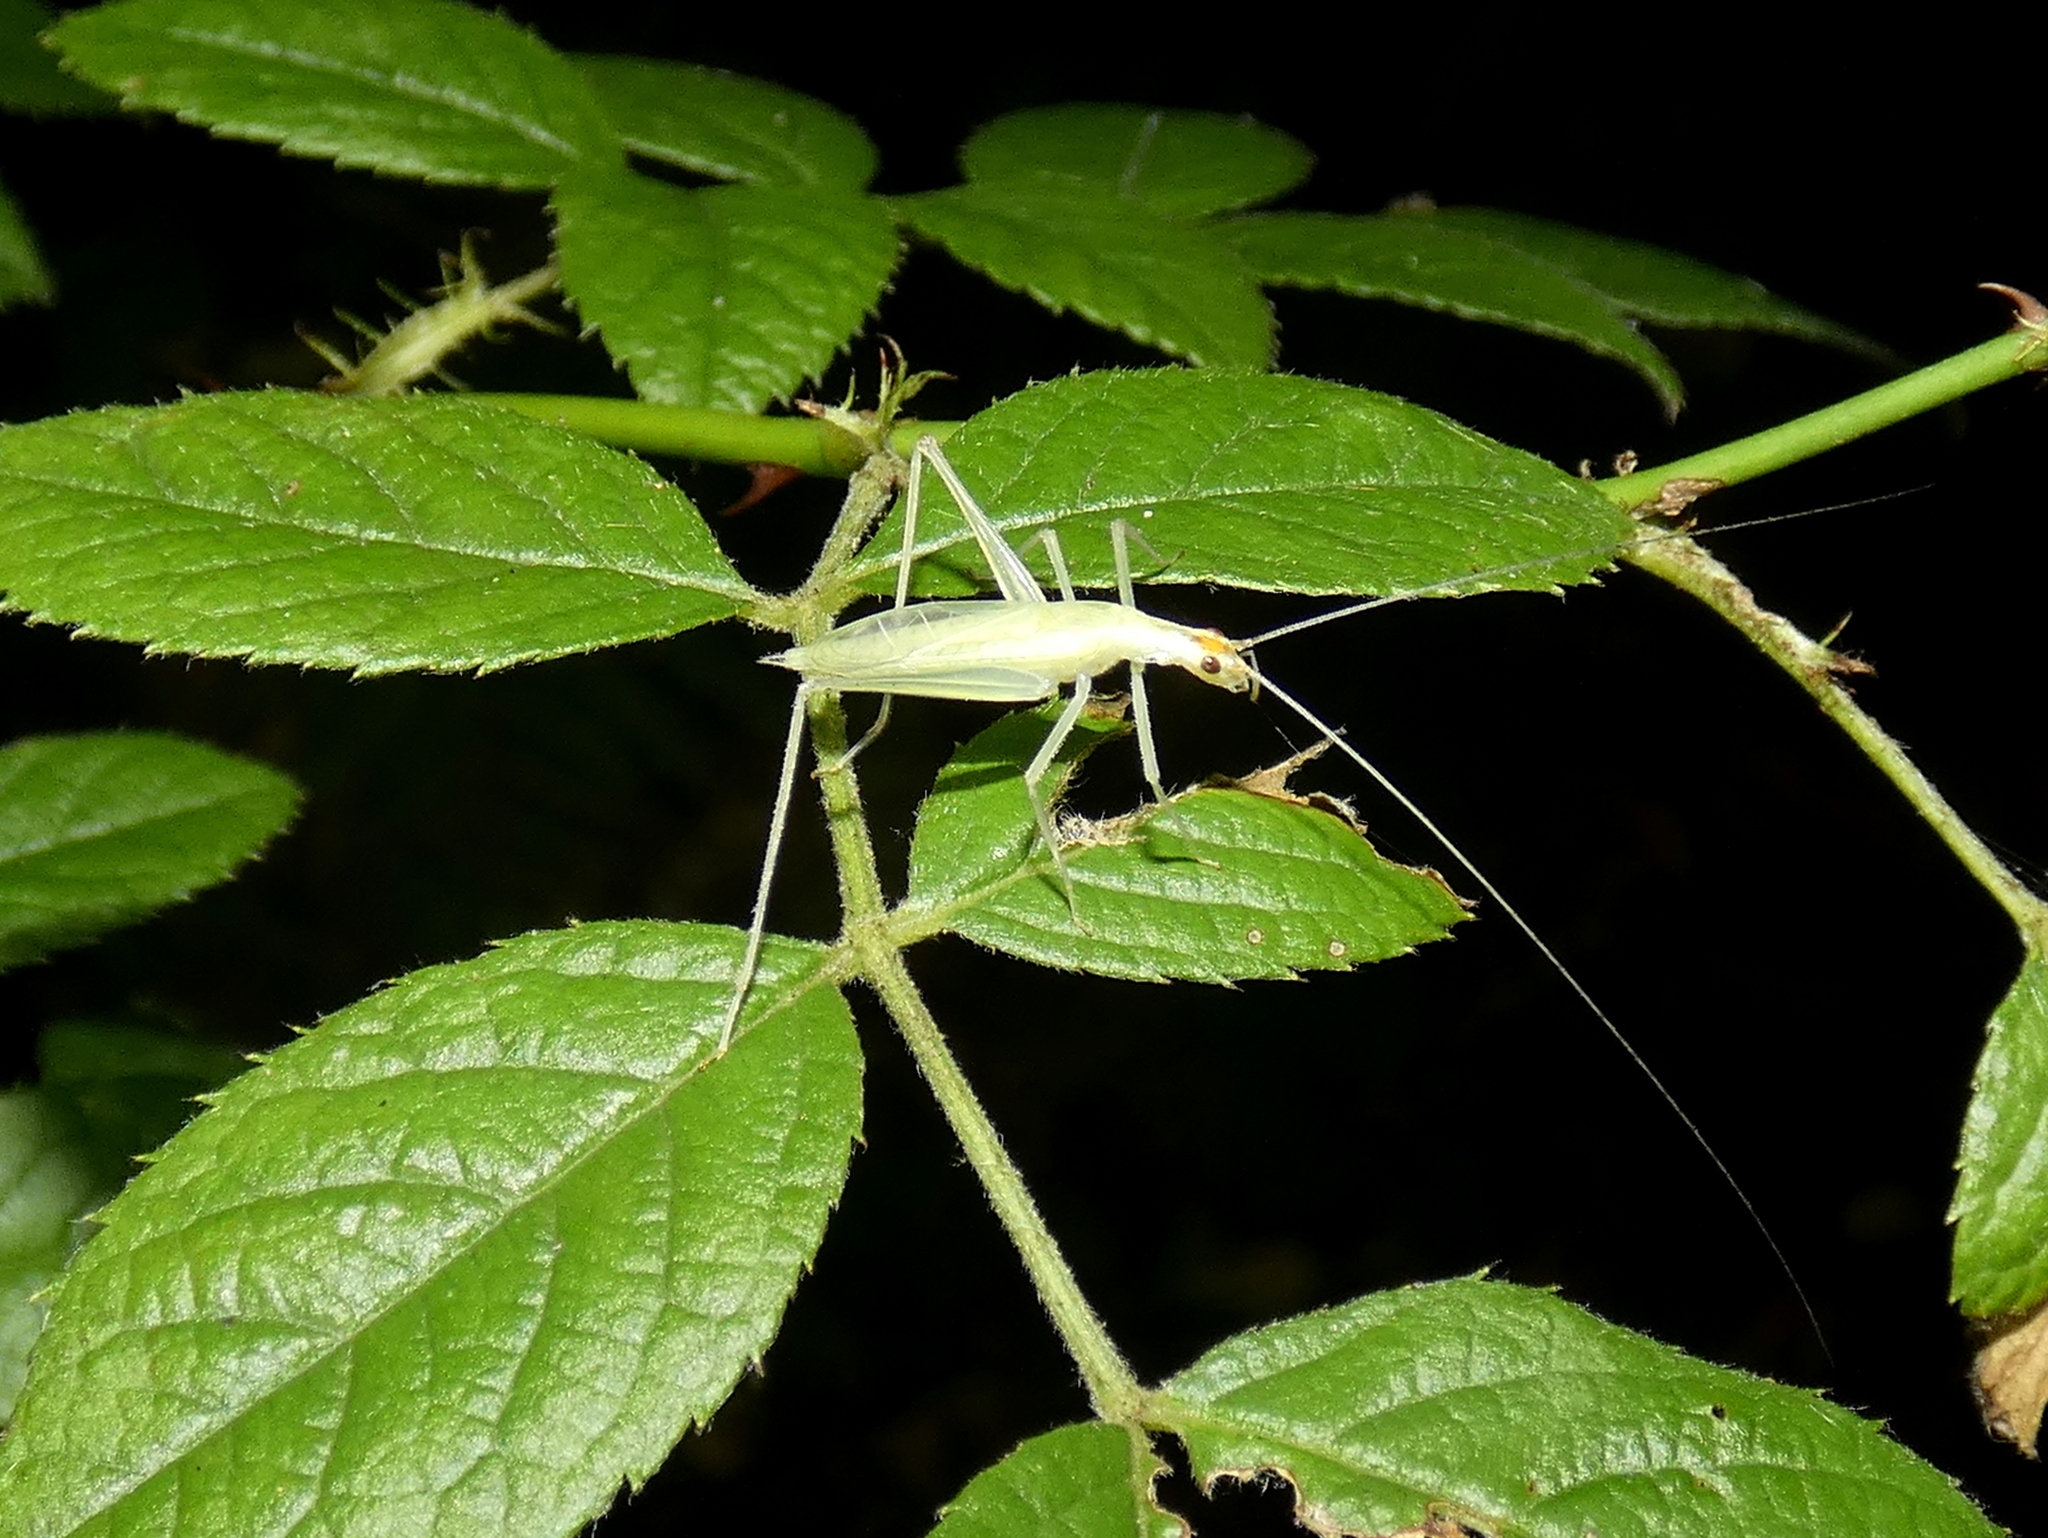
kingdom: Animalia
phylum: Arthropoda
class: Insecta
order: Orthoptera
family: Gryllidae
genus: Oecanthus
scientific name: Oecanthus niveus
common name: Narrow-winged tree cricket
